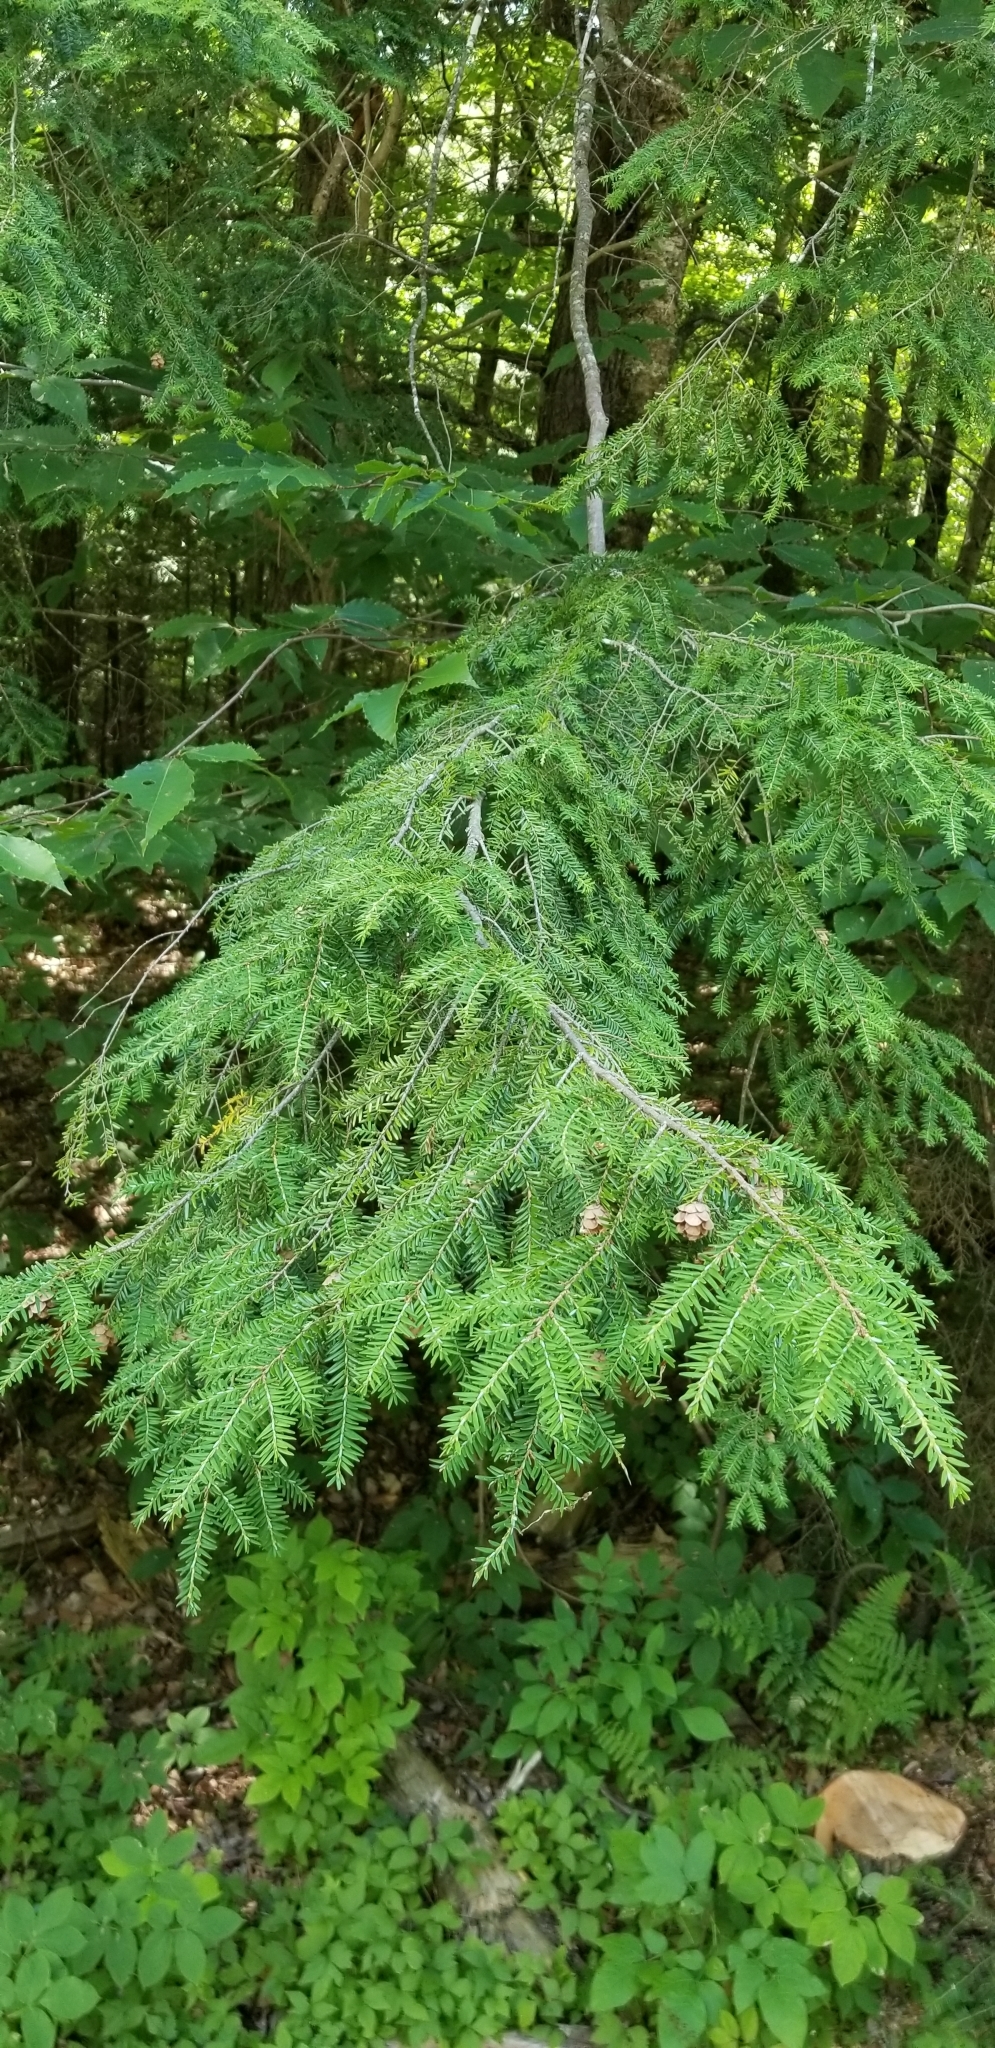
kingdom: Plantae
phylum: Tracheophyta
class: Pinopsida
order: Pinales
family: Pinaceae
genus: Tsuga
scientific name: Tsuga canadensis
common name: Eastern hemlock
